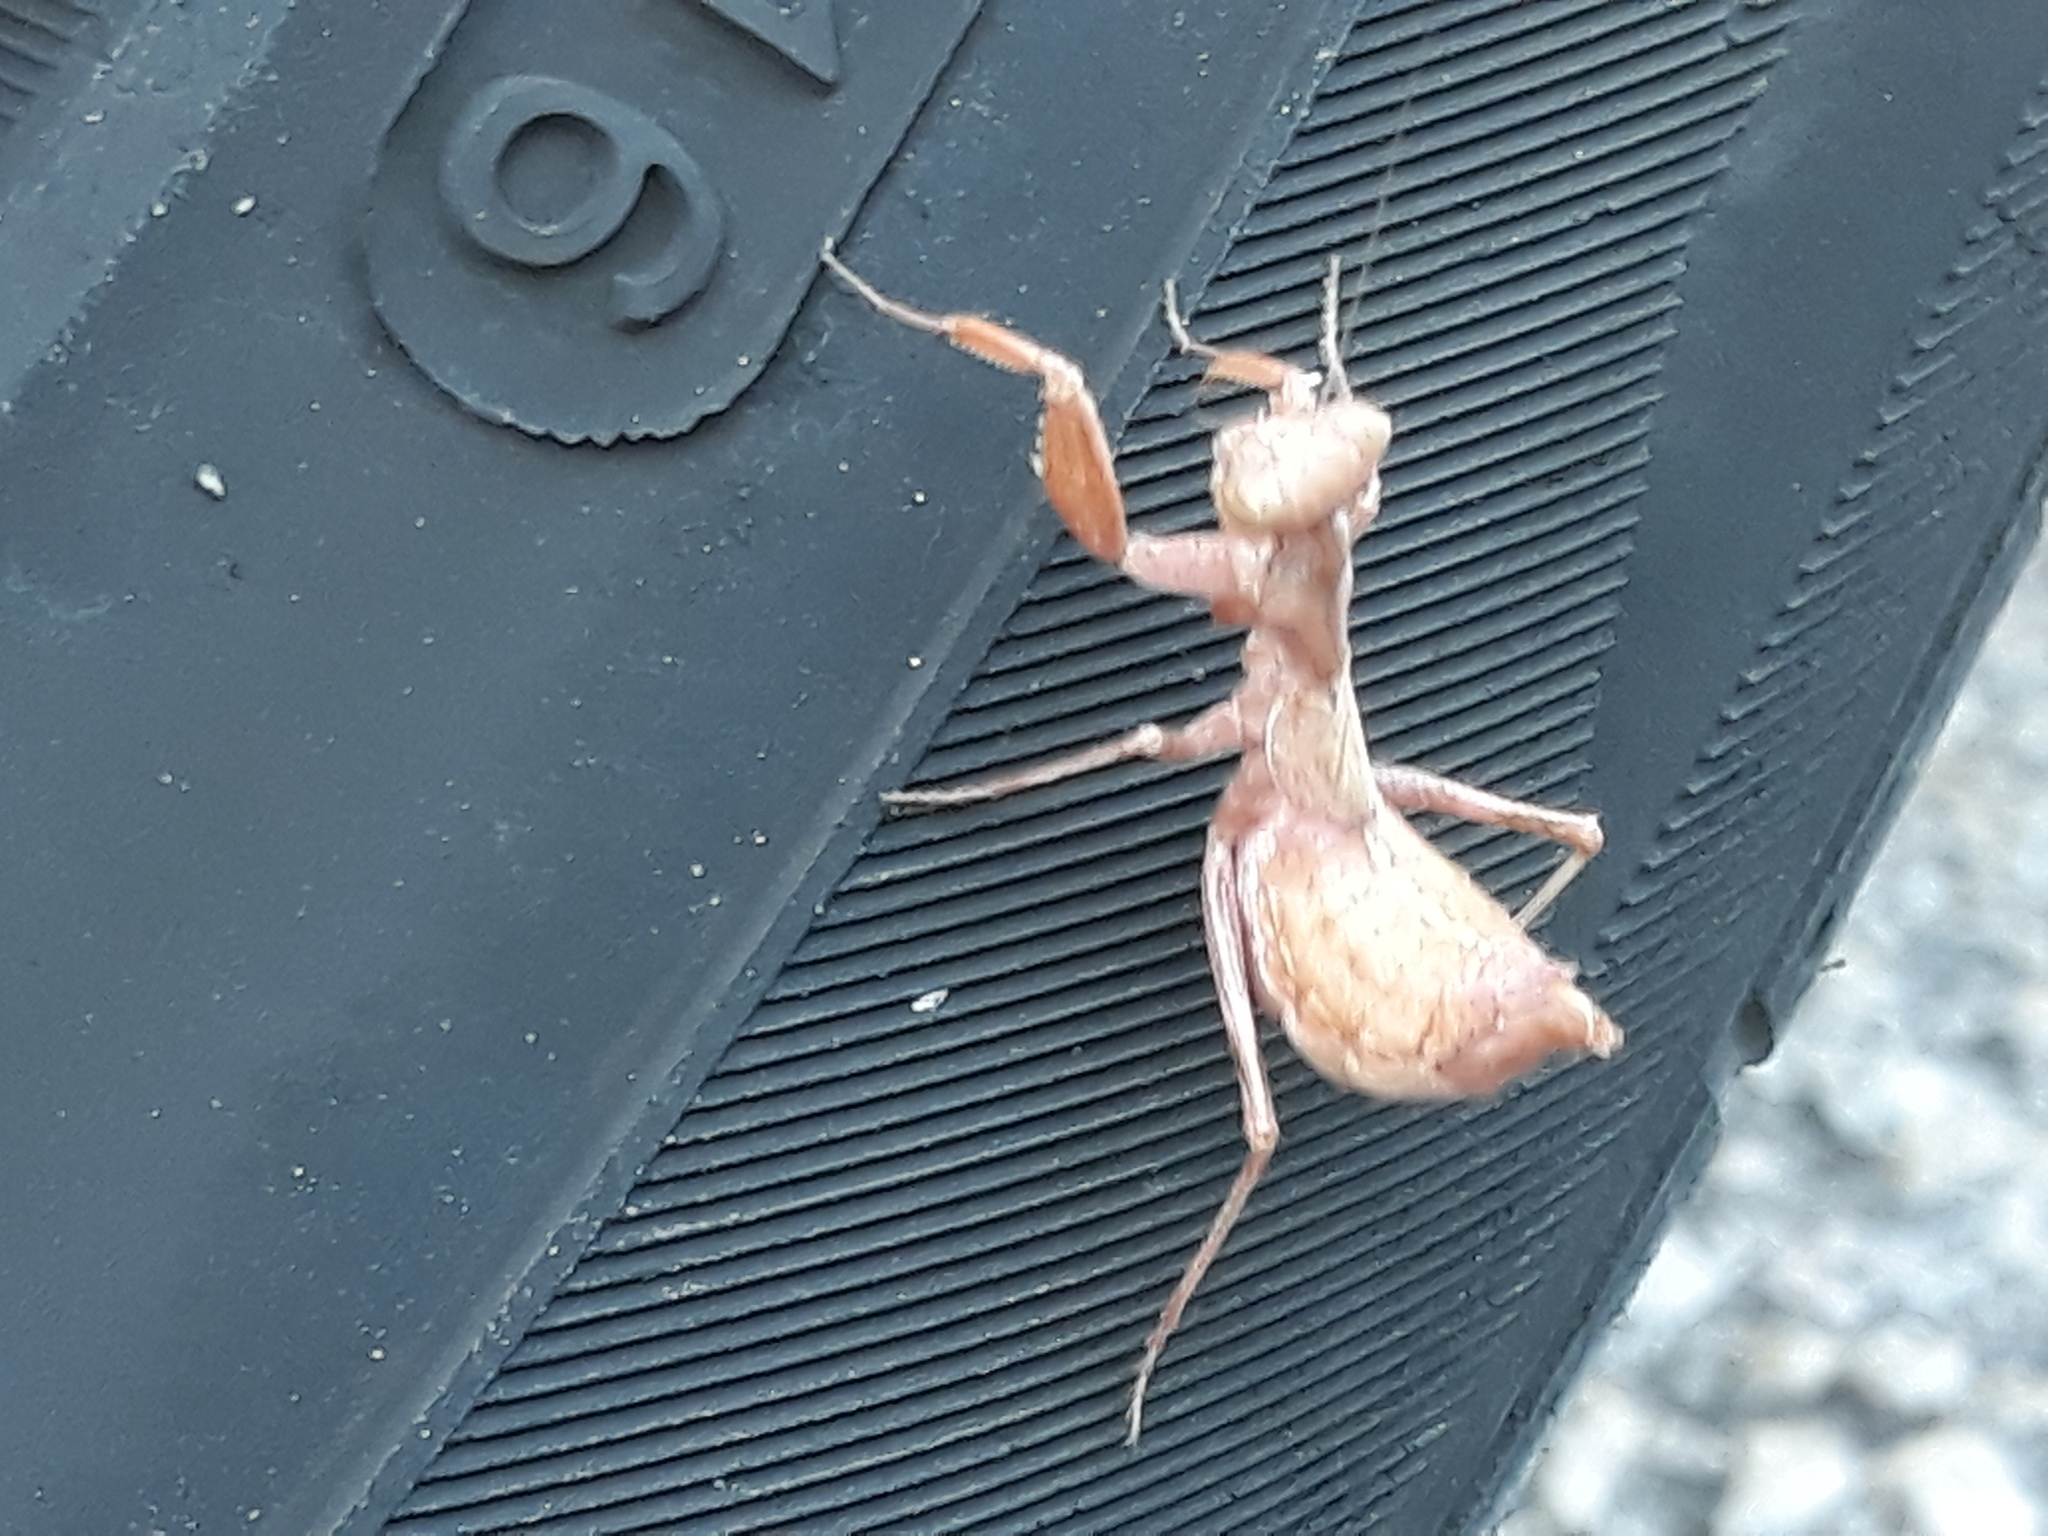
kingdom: Animalia
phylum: Arthropoda
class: Insecta
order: Mantodea
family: Amelidae
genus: Ameles
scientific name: Ameles spallanzania
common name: European dwarf mantis
